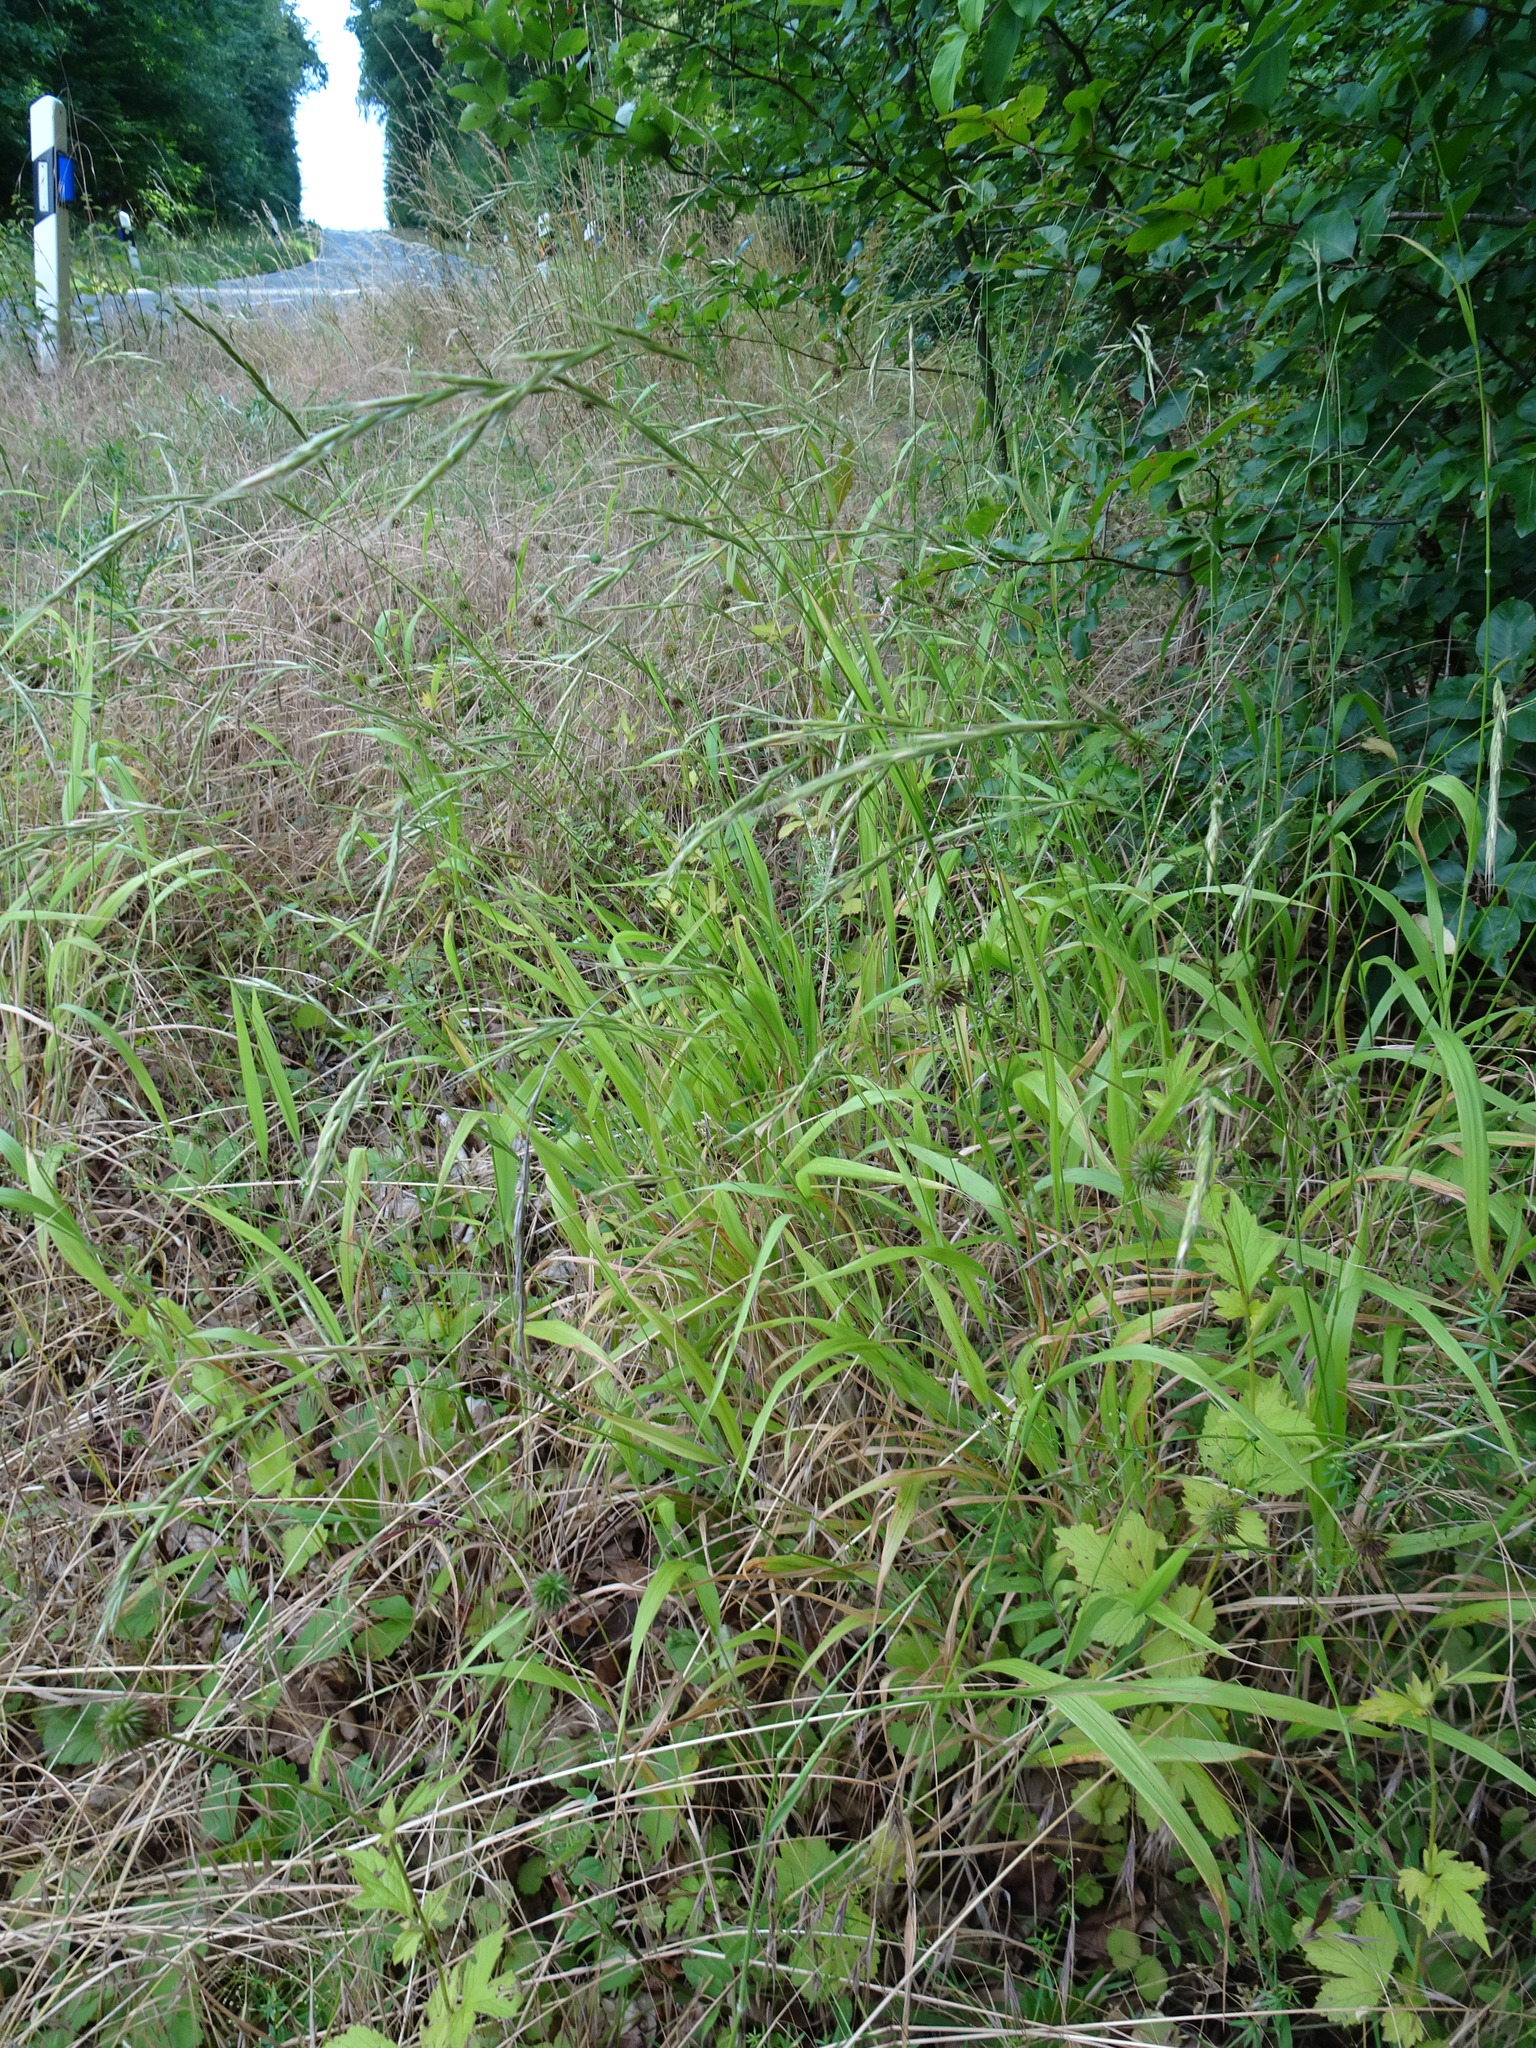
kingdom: Plantae
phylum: Tracheophyta
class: Liliopsida
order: Poales
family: Poaceae
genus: Brachypodium
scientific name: Brachypodium sylvaticum
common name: False-brome
